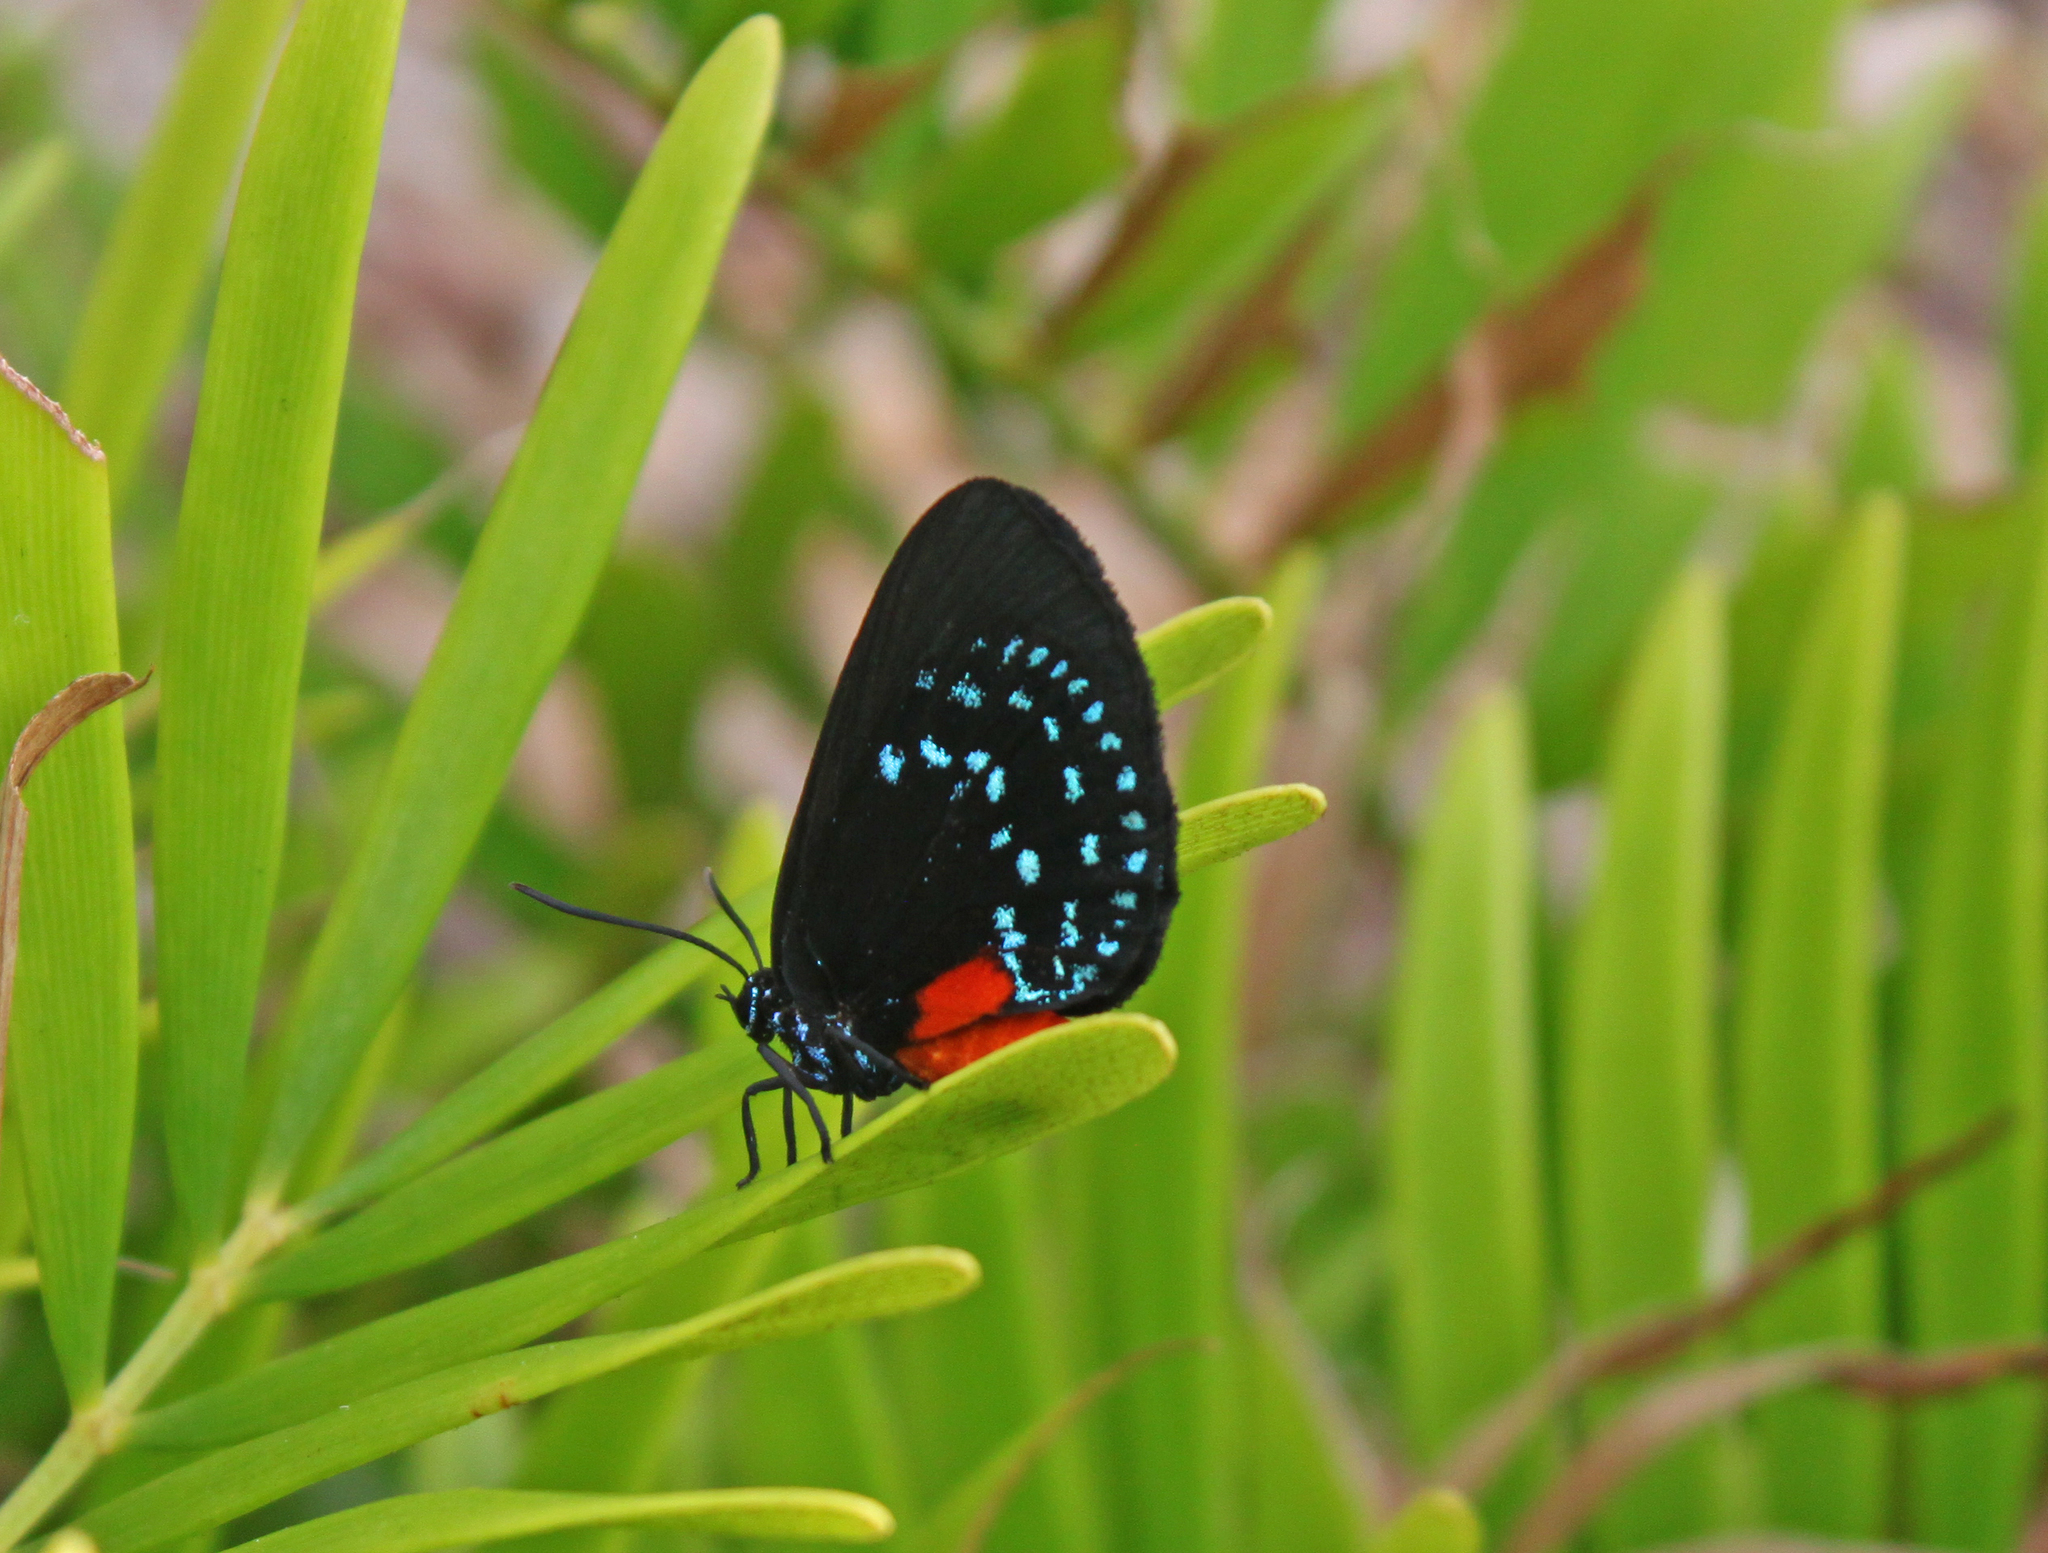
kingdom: Animalia
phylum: Arthropoda
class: Insecta
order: Lepidoptera
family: Lycaenidae
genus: Eumaeus
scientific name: Eumaeus atala
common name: Atala
